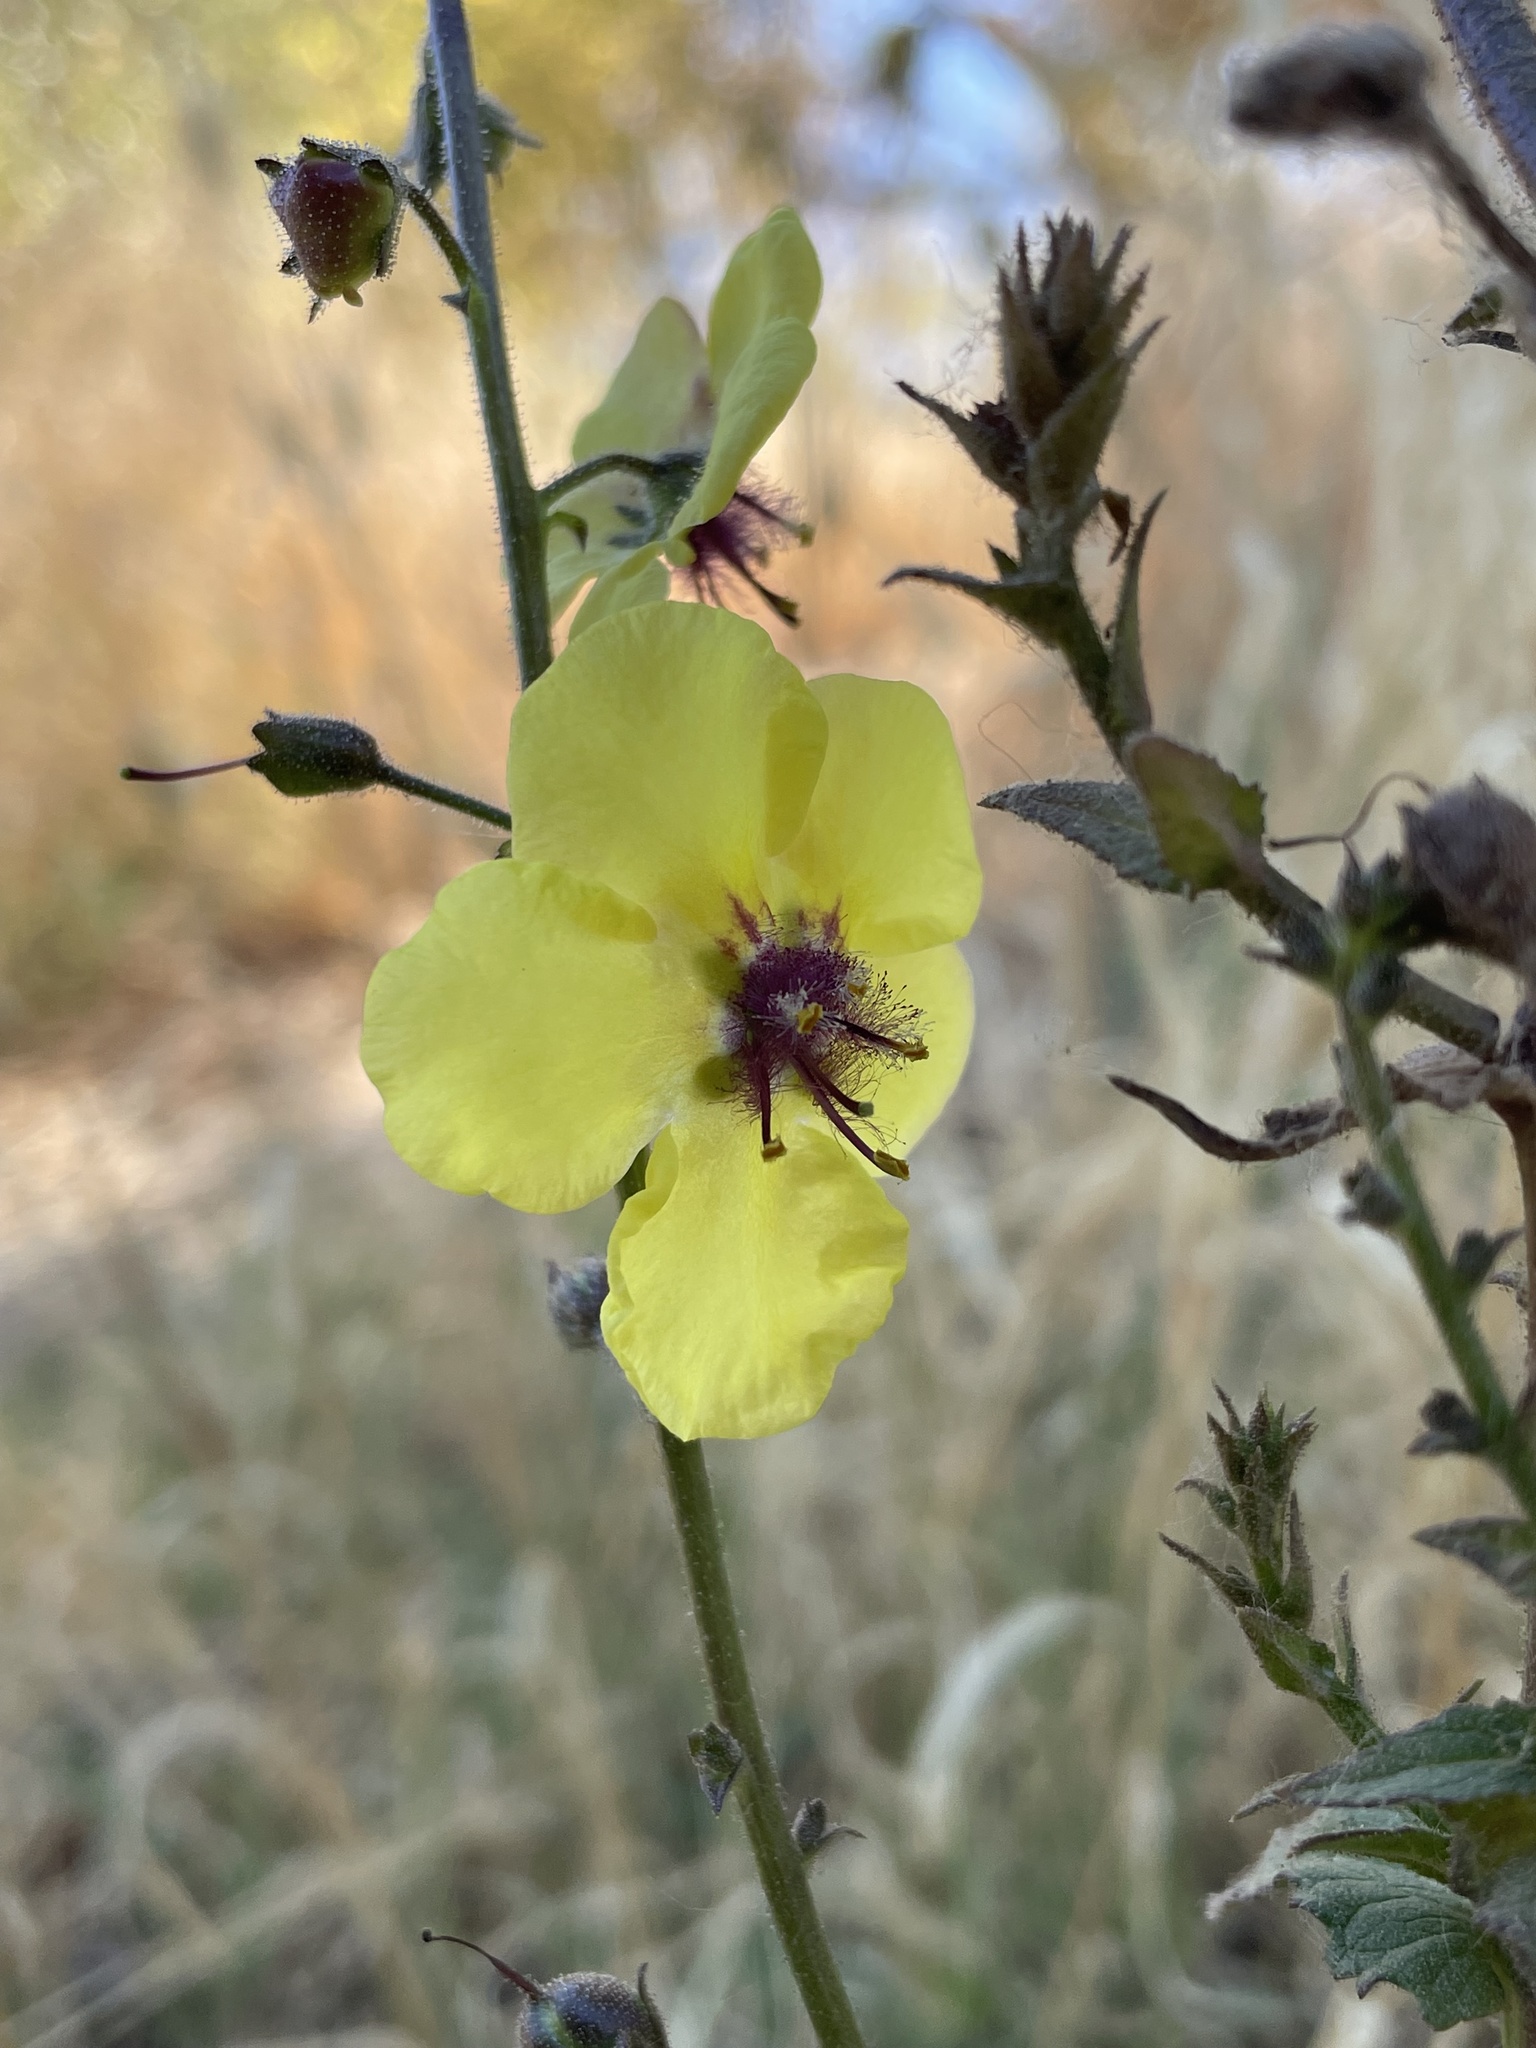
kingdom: Plantae
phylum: Tracheophyta
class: Magnoliopsida
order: Lamiales
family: Scrophulariaceae
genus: Verbascum
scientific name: Verbascum blattaria
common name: Moth mullein
